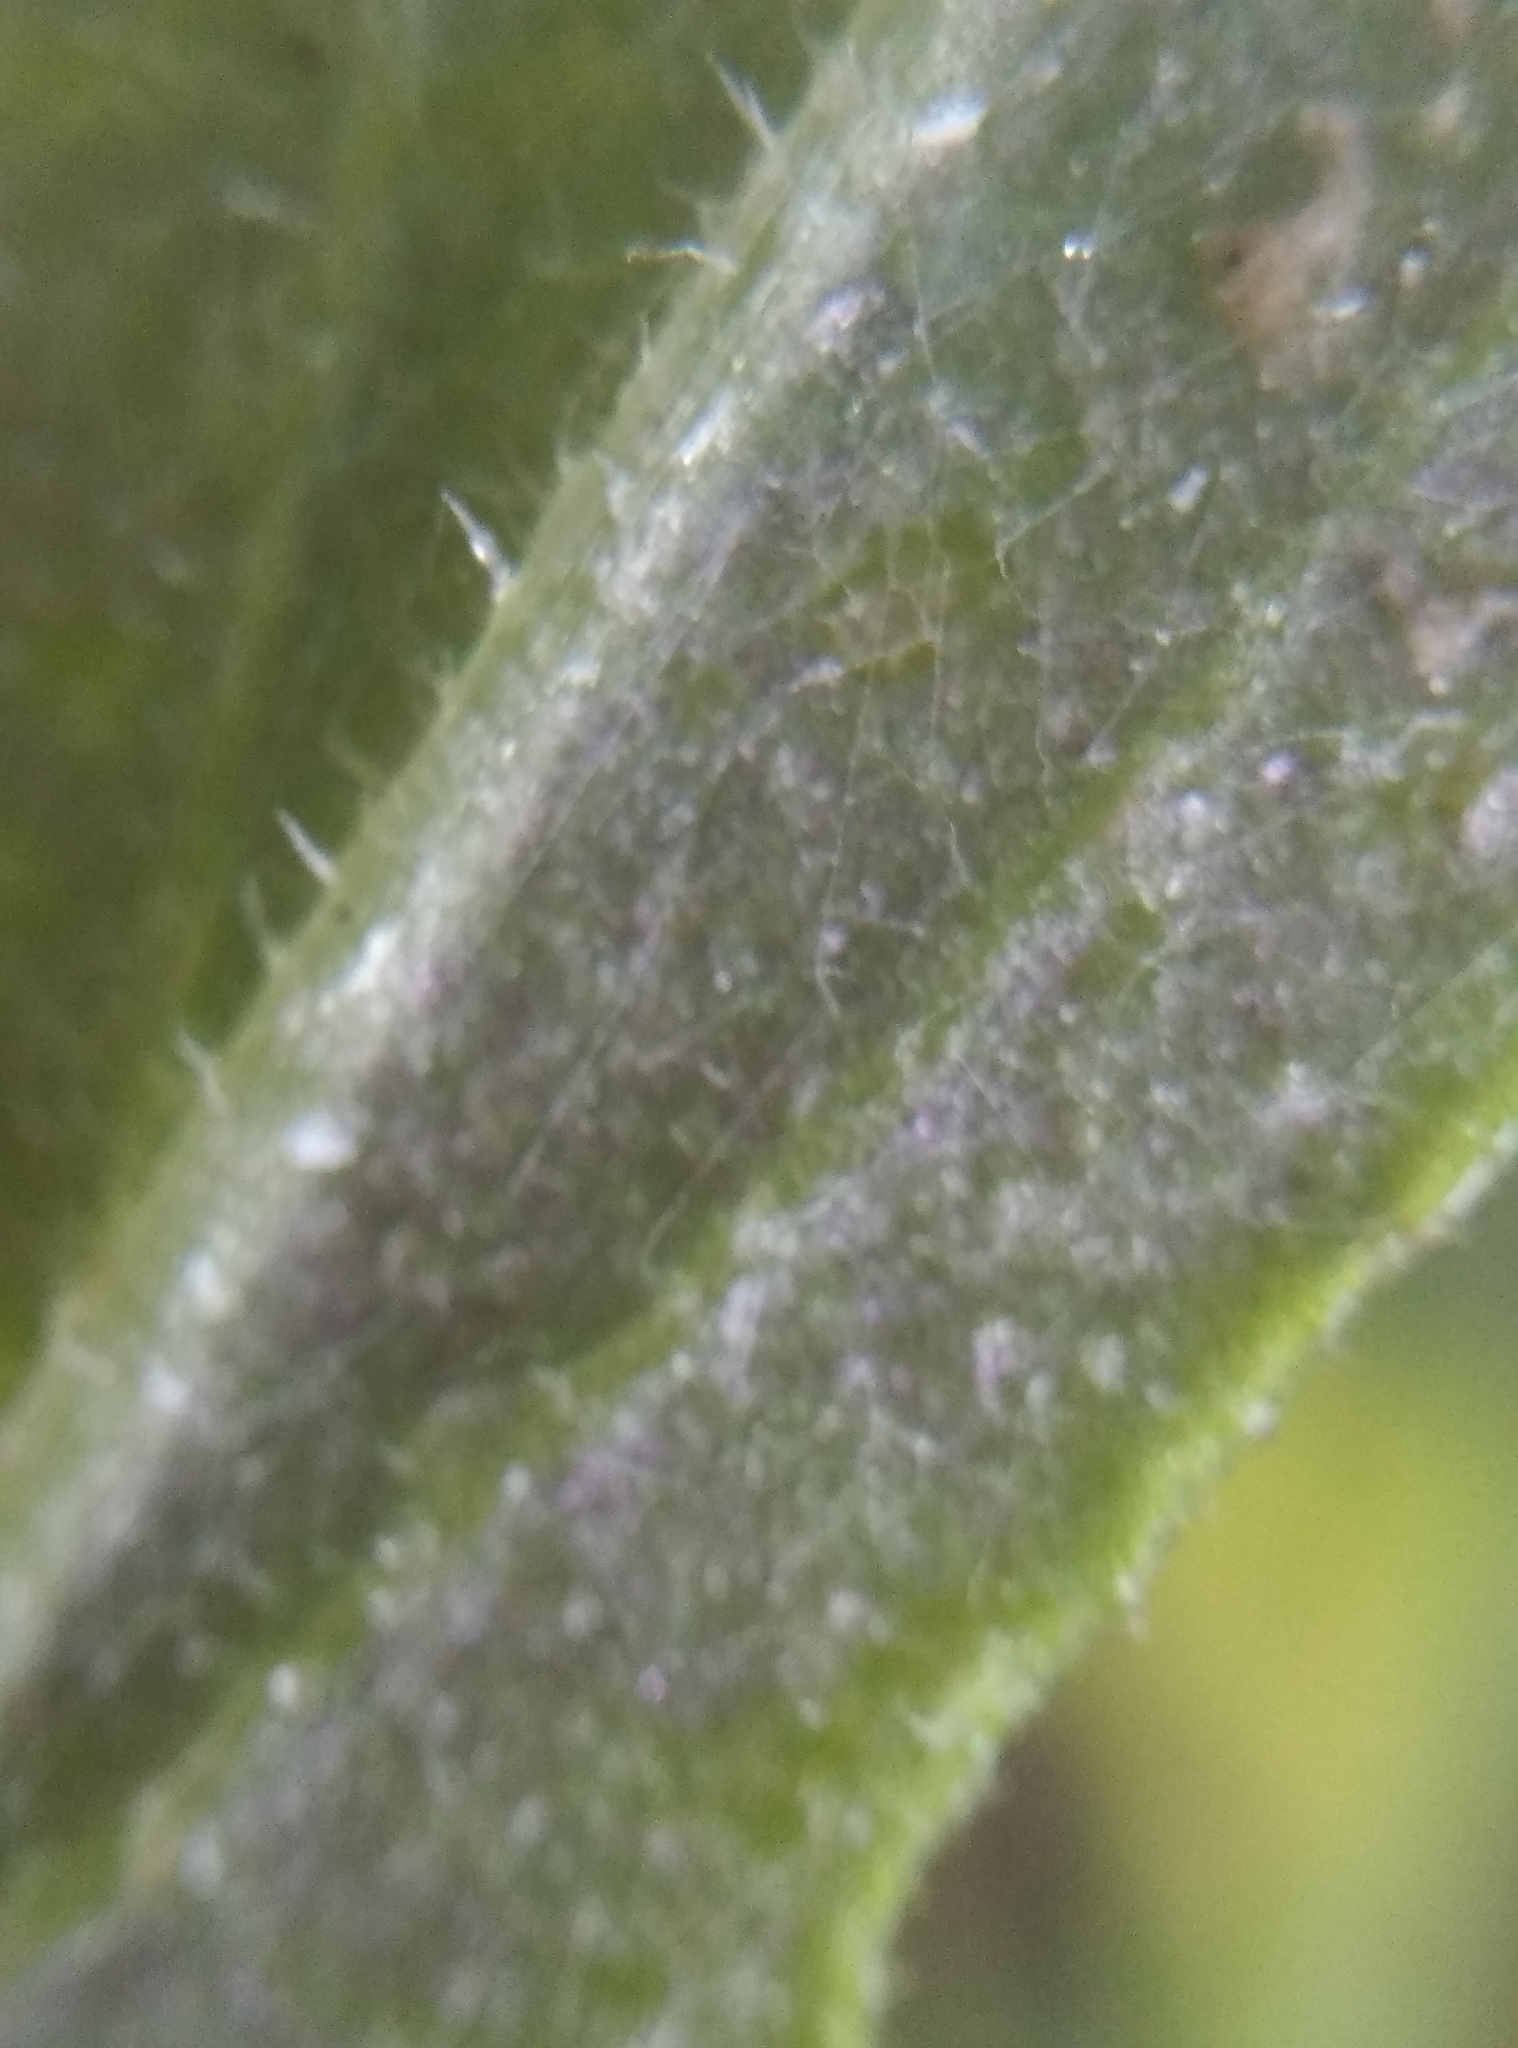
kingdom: Plantae
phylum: Tracheophyta
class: Magnoliopsida
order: Asterales
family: Asteraceae
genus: Senecio
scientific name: Senecio hispidulus
